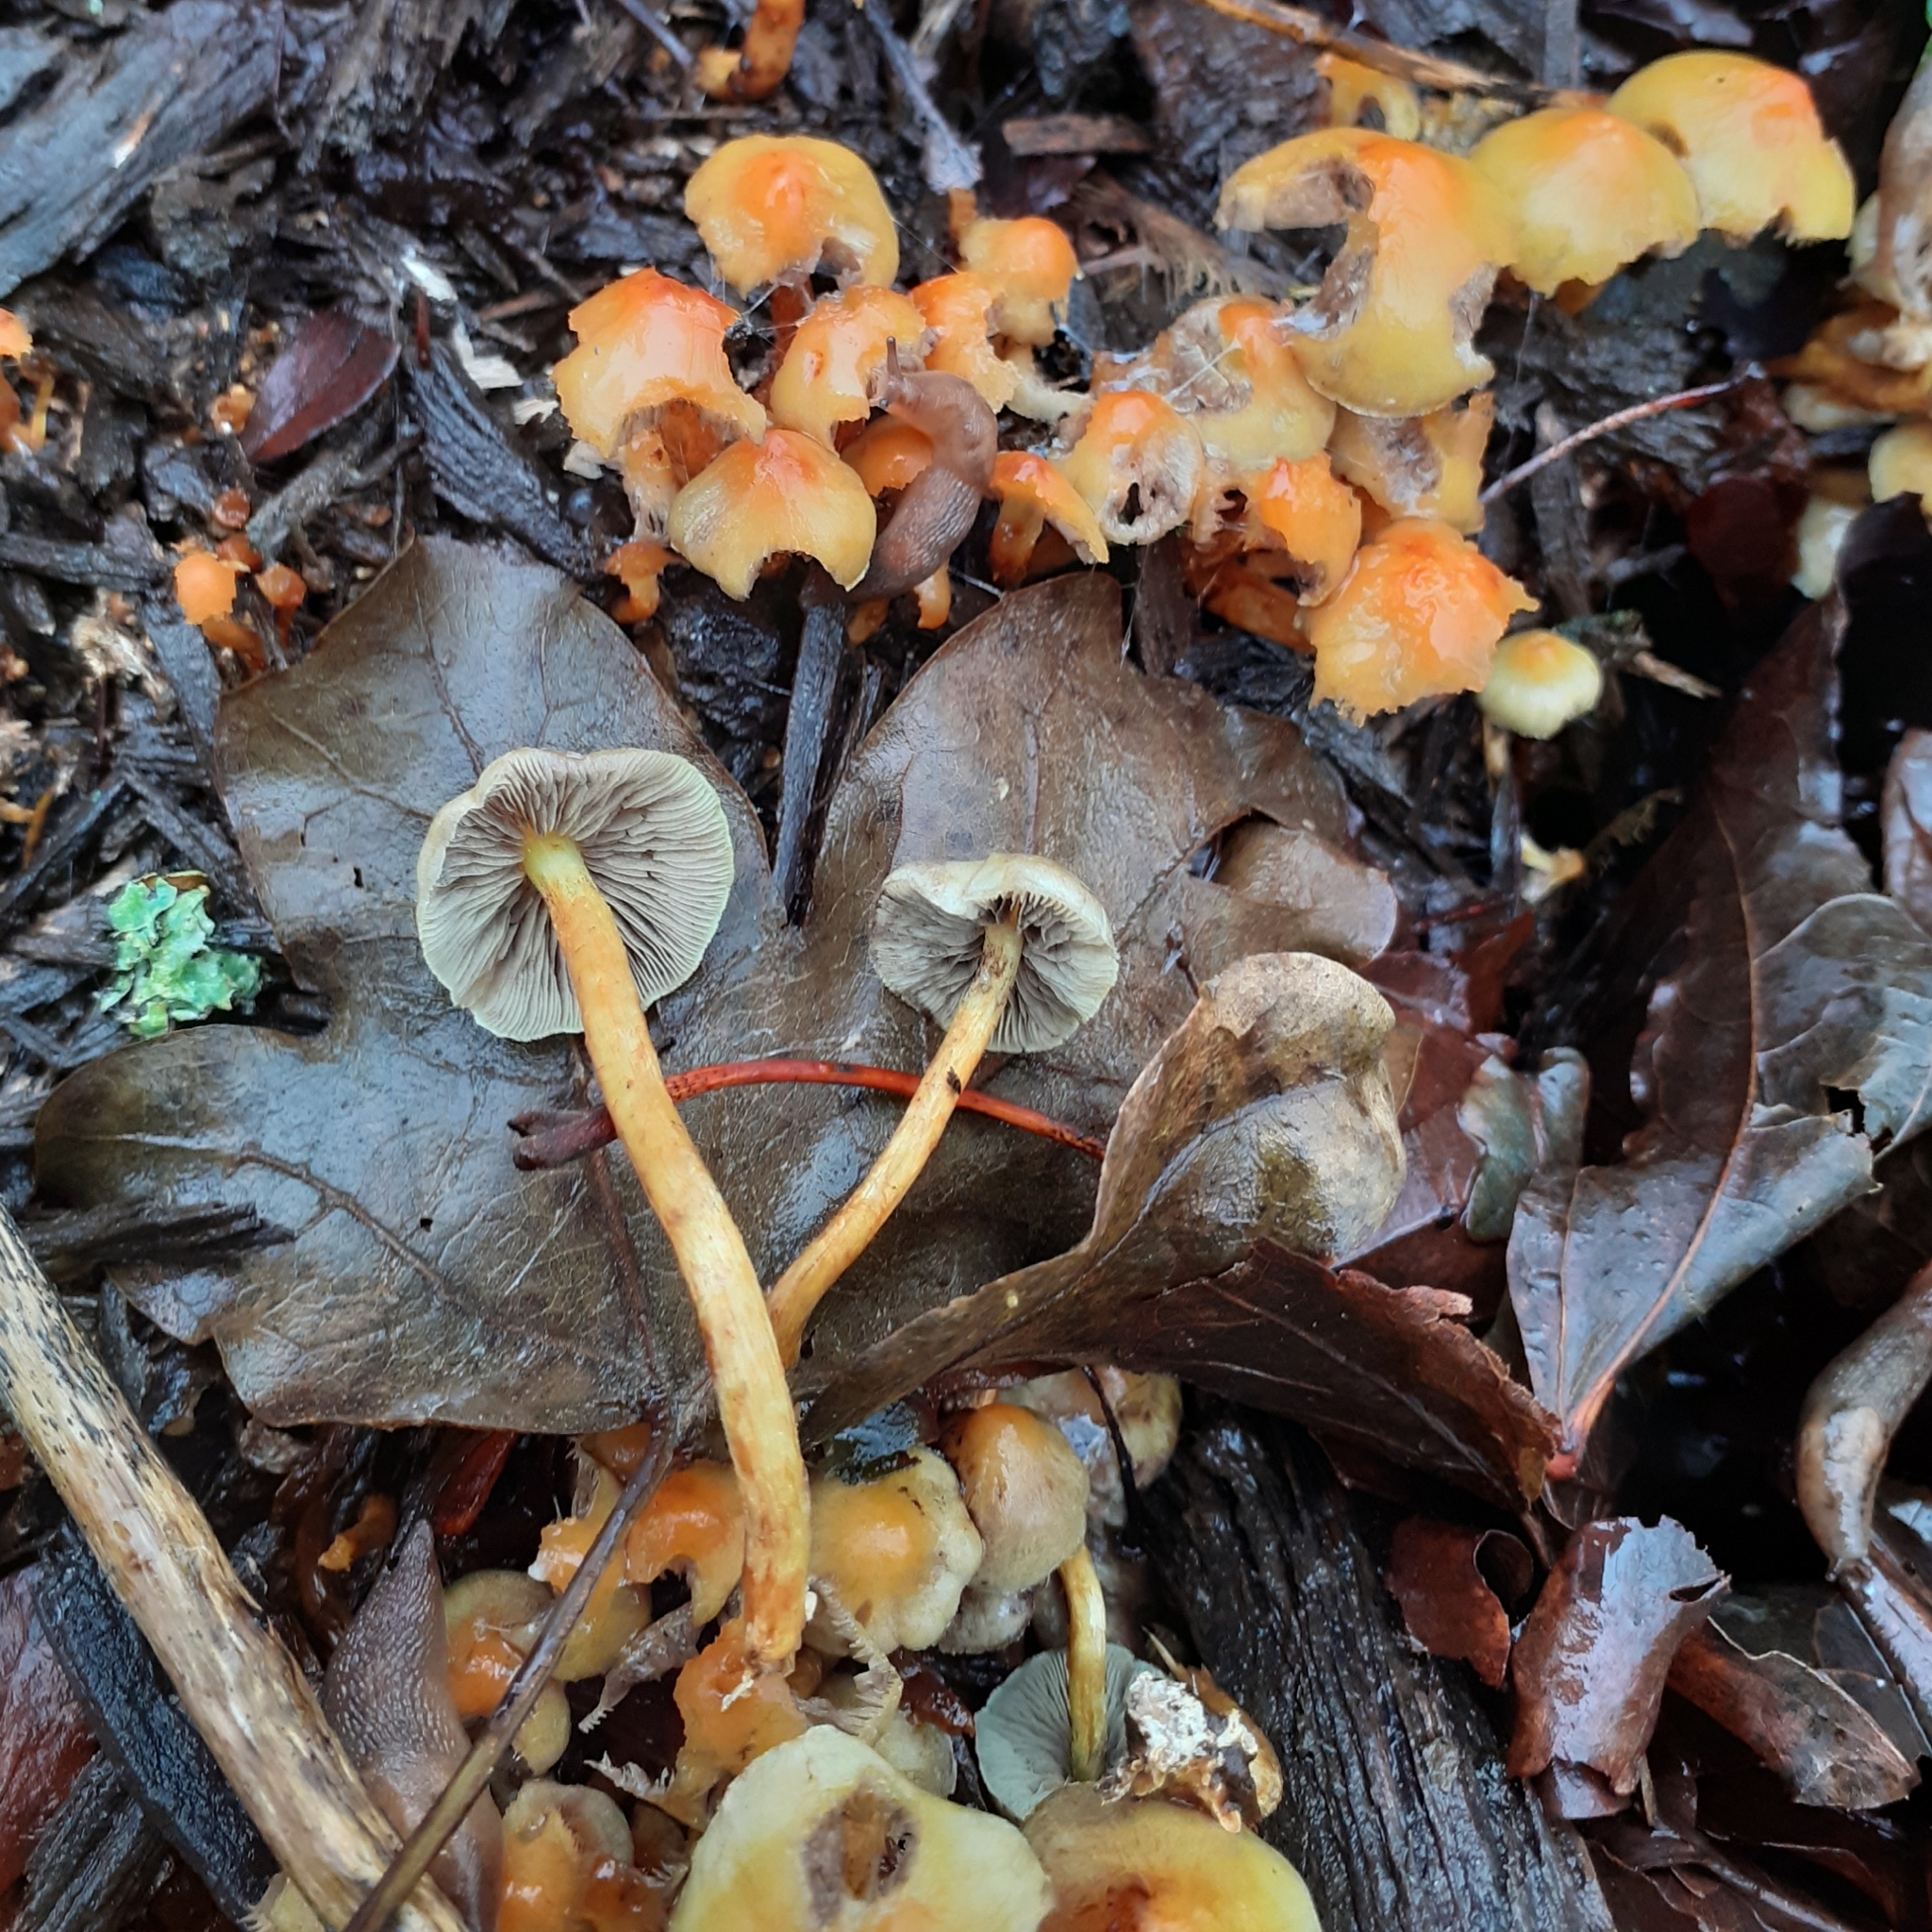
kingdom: Fungi
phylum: Basidiomycota
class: Agaricomycetes
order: Agaricales
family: Strophariaceae
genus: Hypholoma
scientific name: Hypholoma fasciculare
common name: Sulphur tuft
